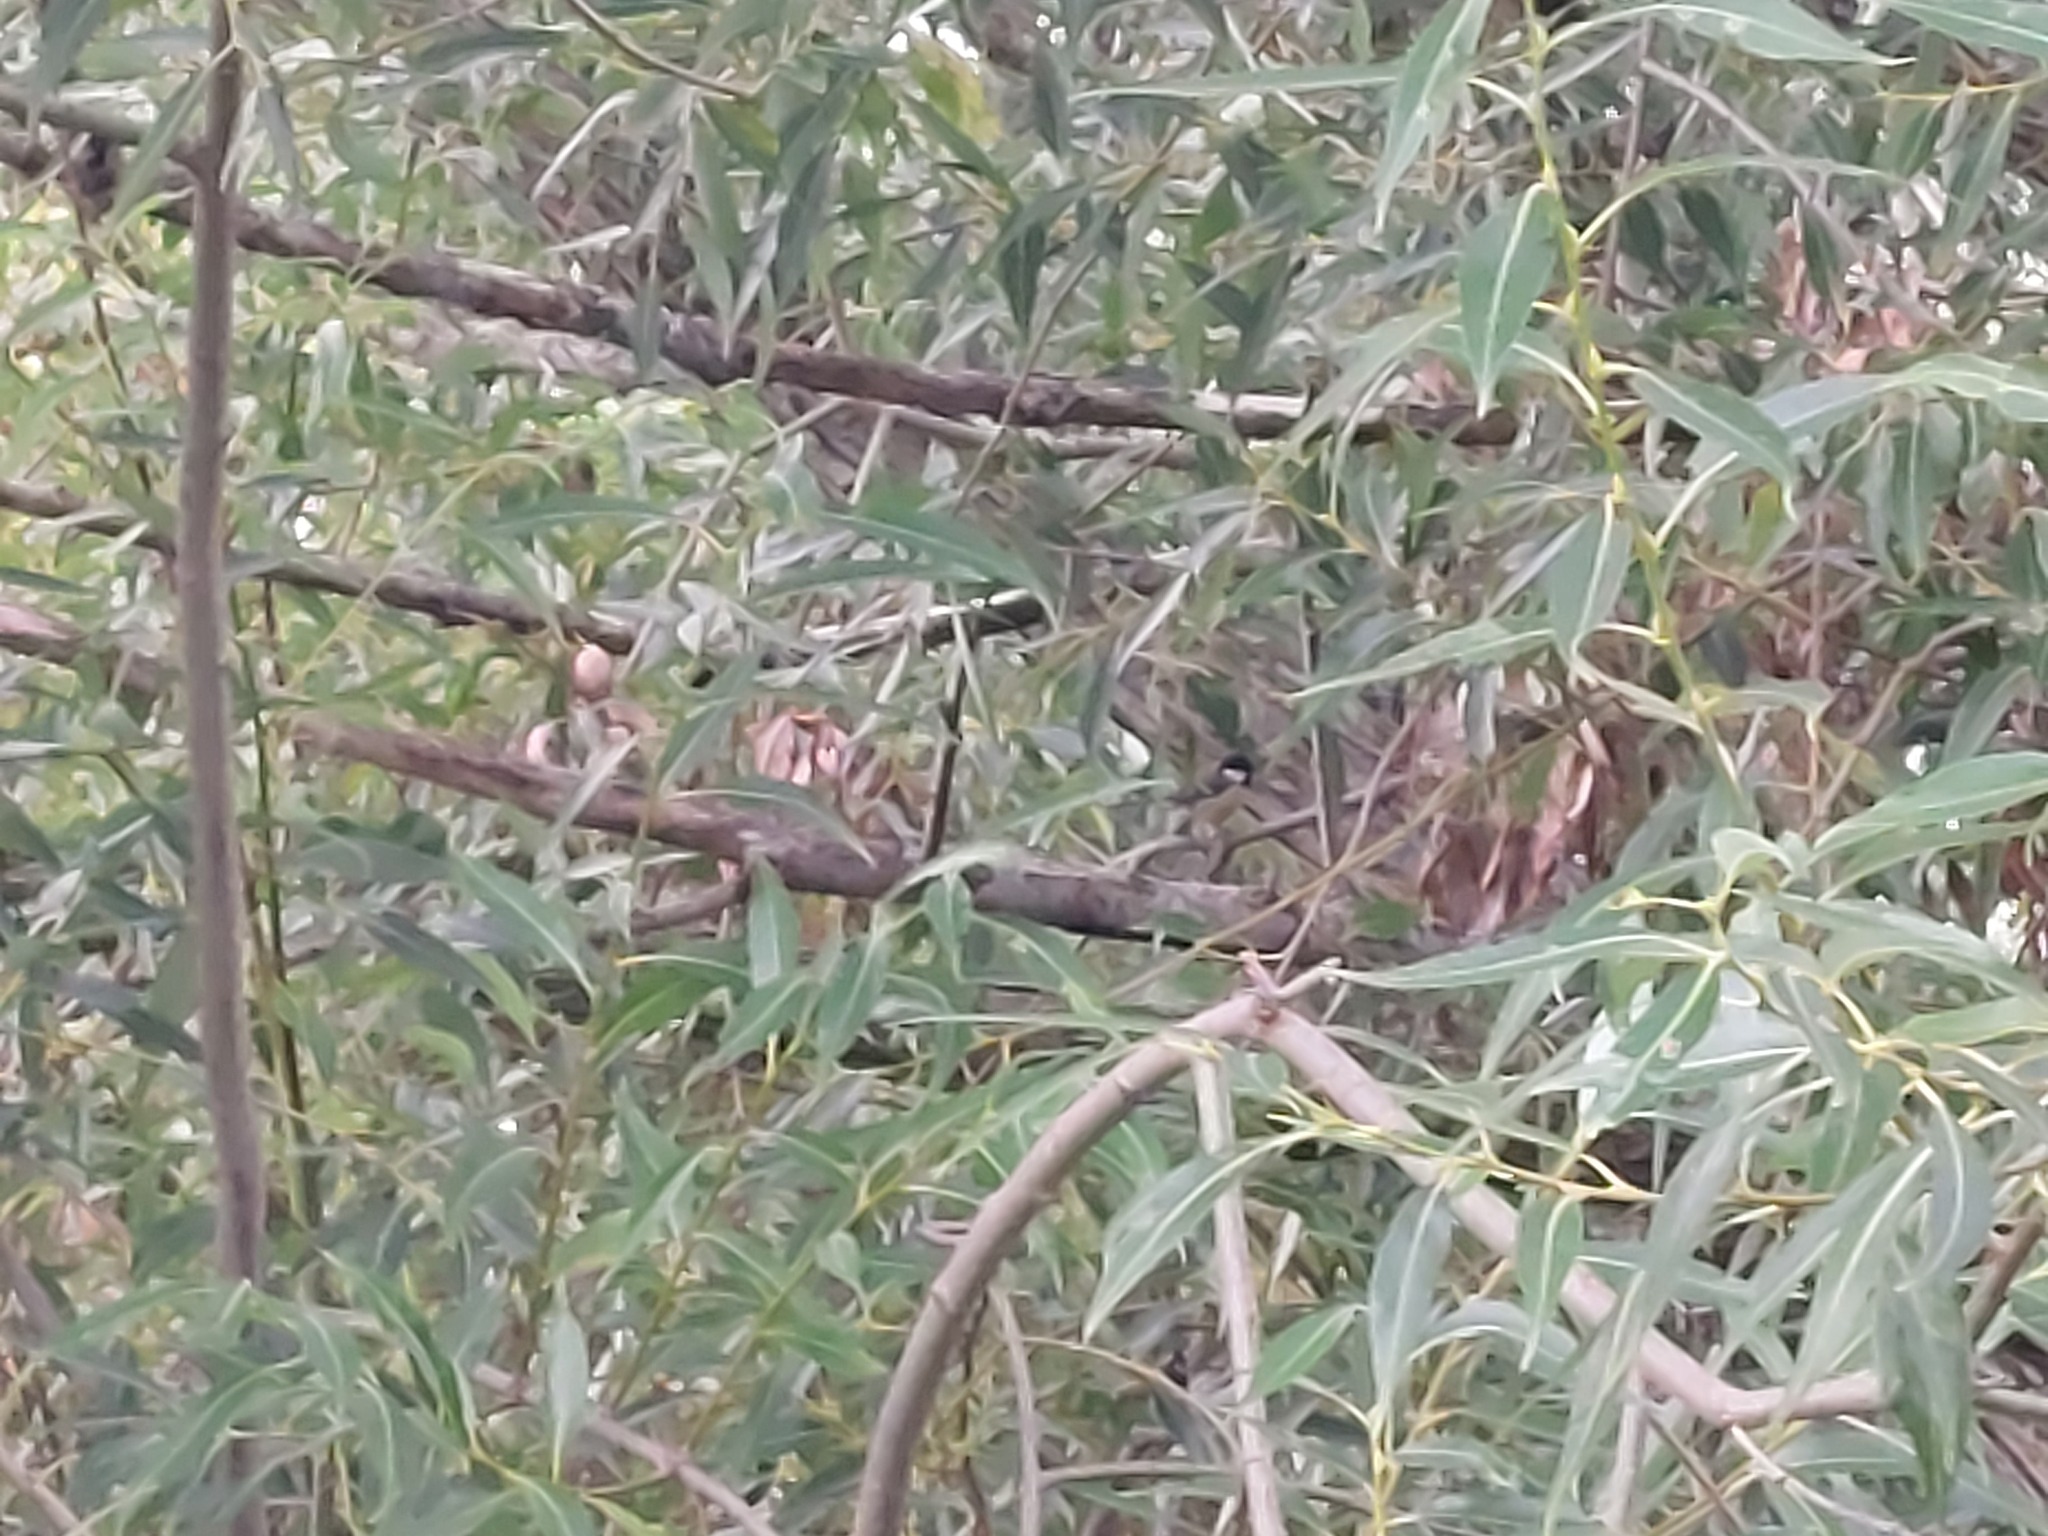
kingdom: Animalia
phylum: Chordata
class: Aves
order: Passeriformes
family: Paridae
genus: Parus
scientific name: Parus major
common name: Great tit
